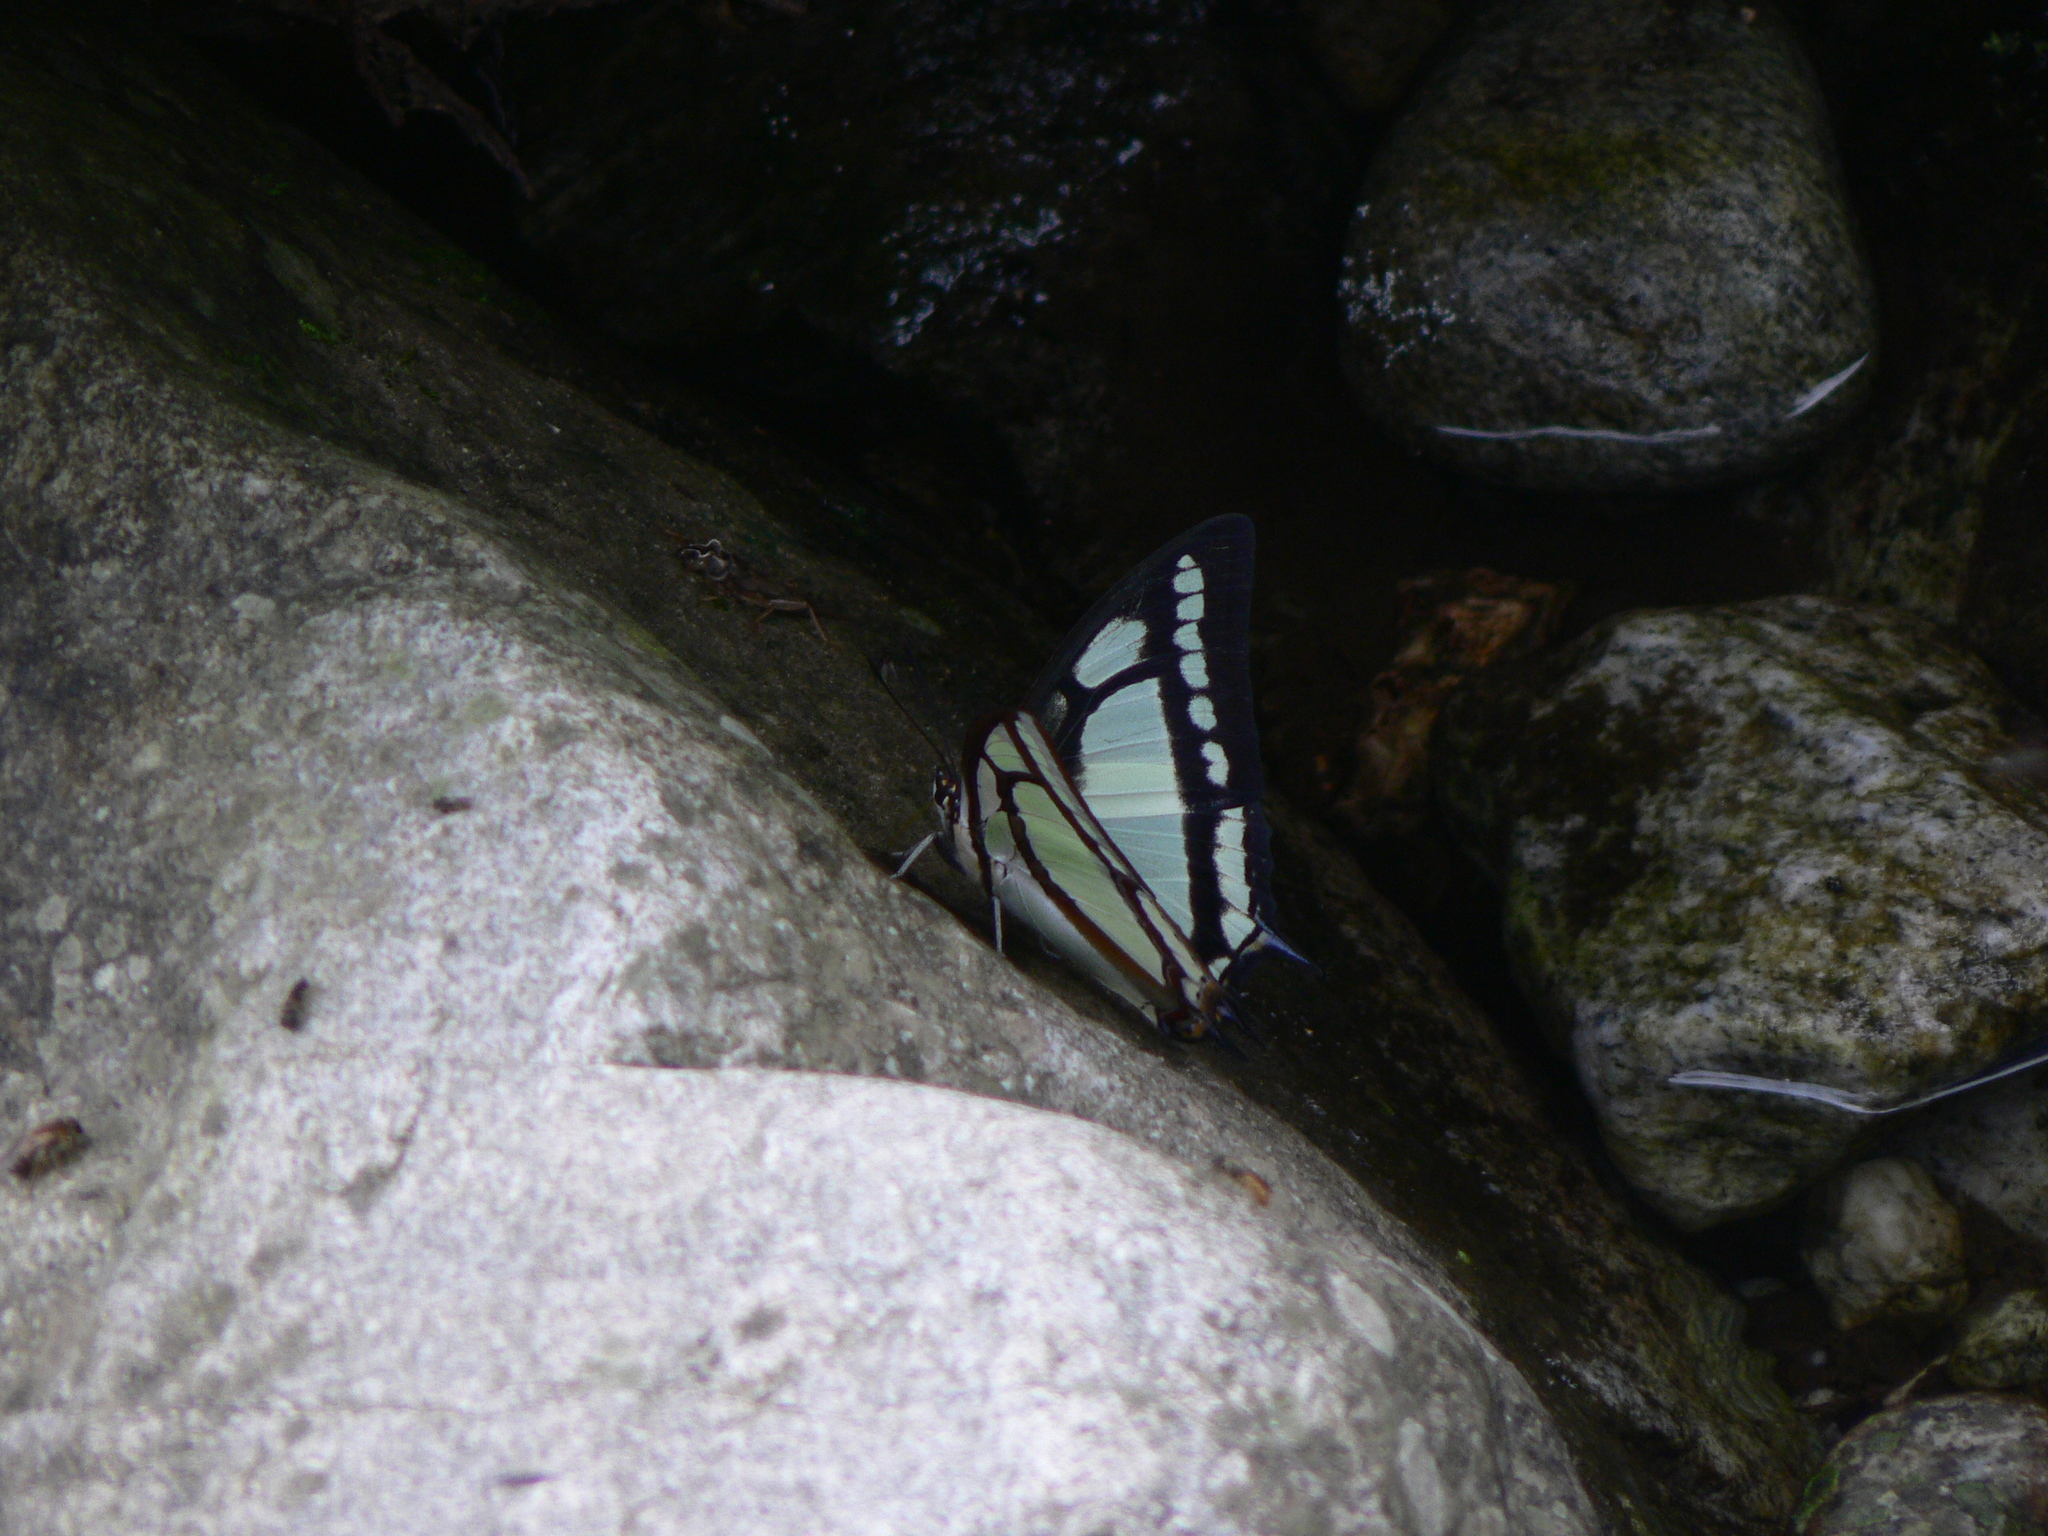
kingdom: Animalia
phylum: Arthropoda
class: Insecta
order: Lepidoptera
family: Nymphalidae
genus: Polyura
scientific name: Polyura narcaeus
